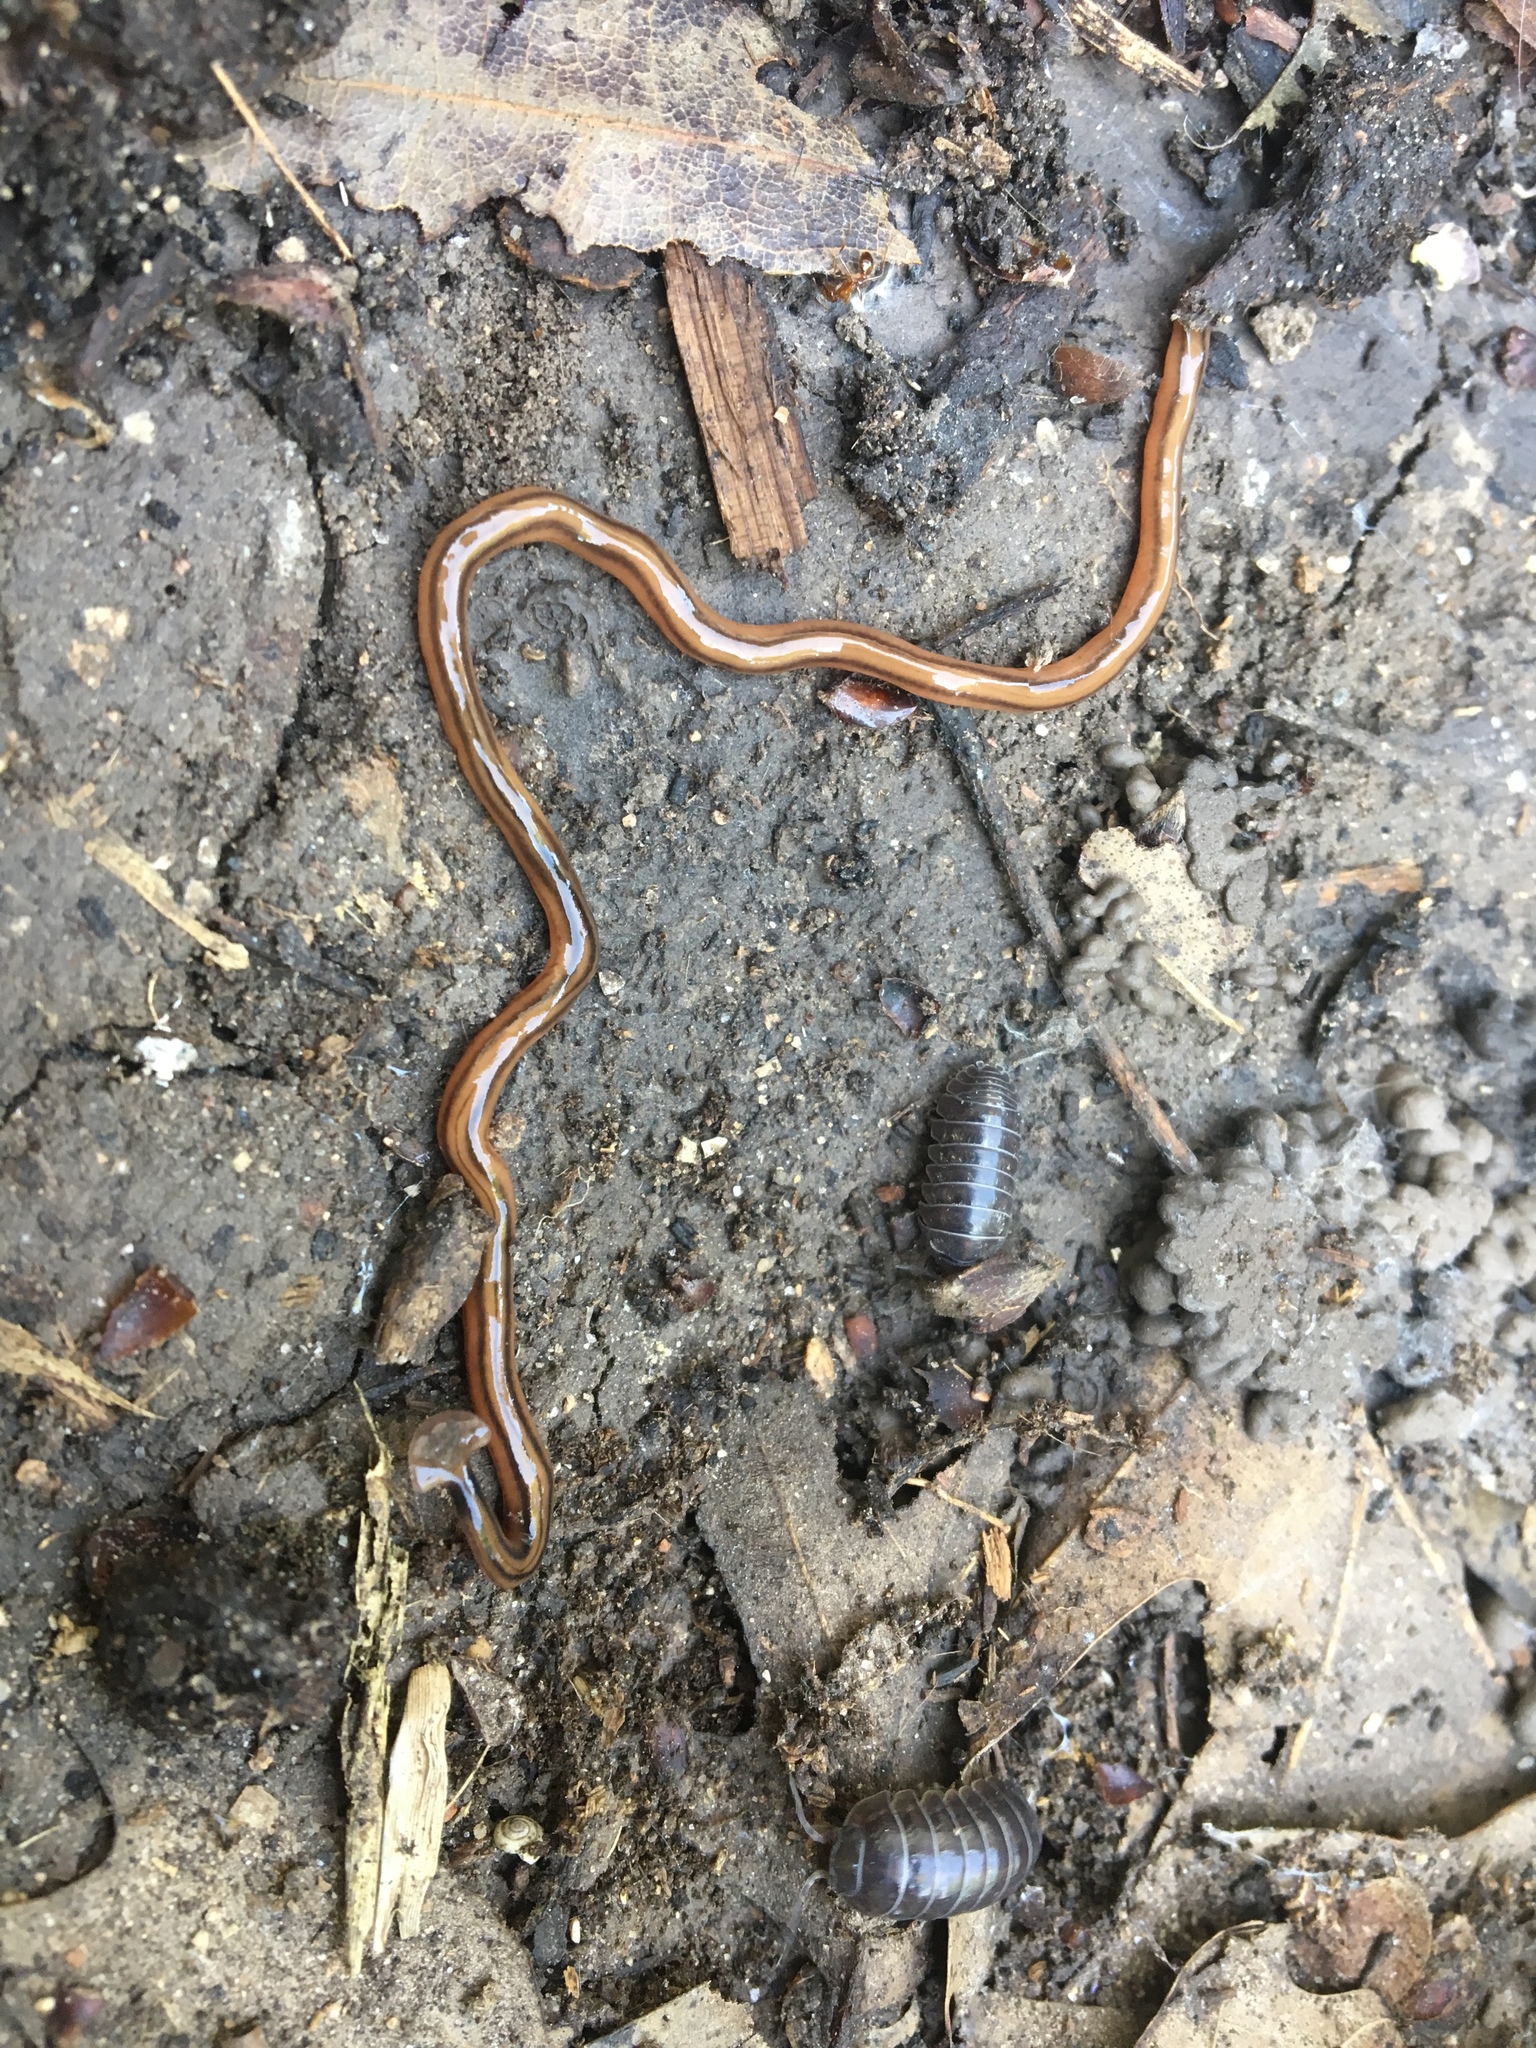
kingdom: Animalia
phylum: Platyhelminthes
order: Tricladida
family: Geoplanidae
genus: Bipalium
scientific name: Bipalium kewense
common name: Hammerhead flatworm
